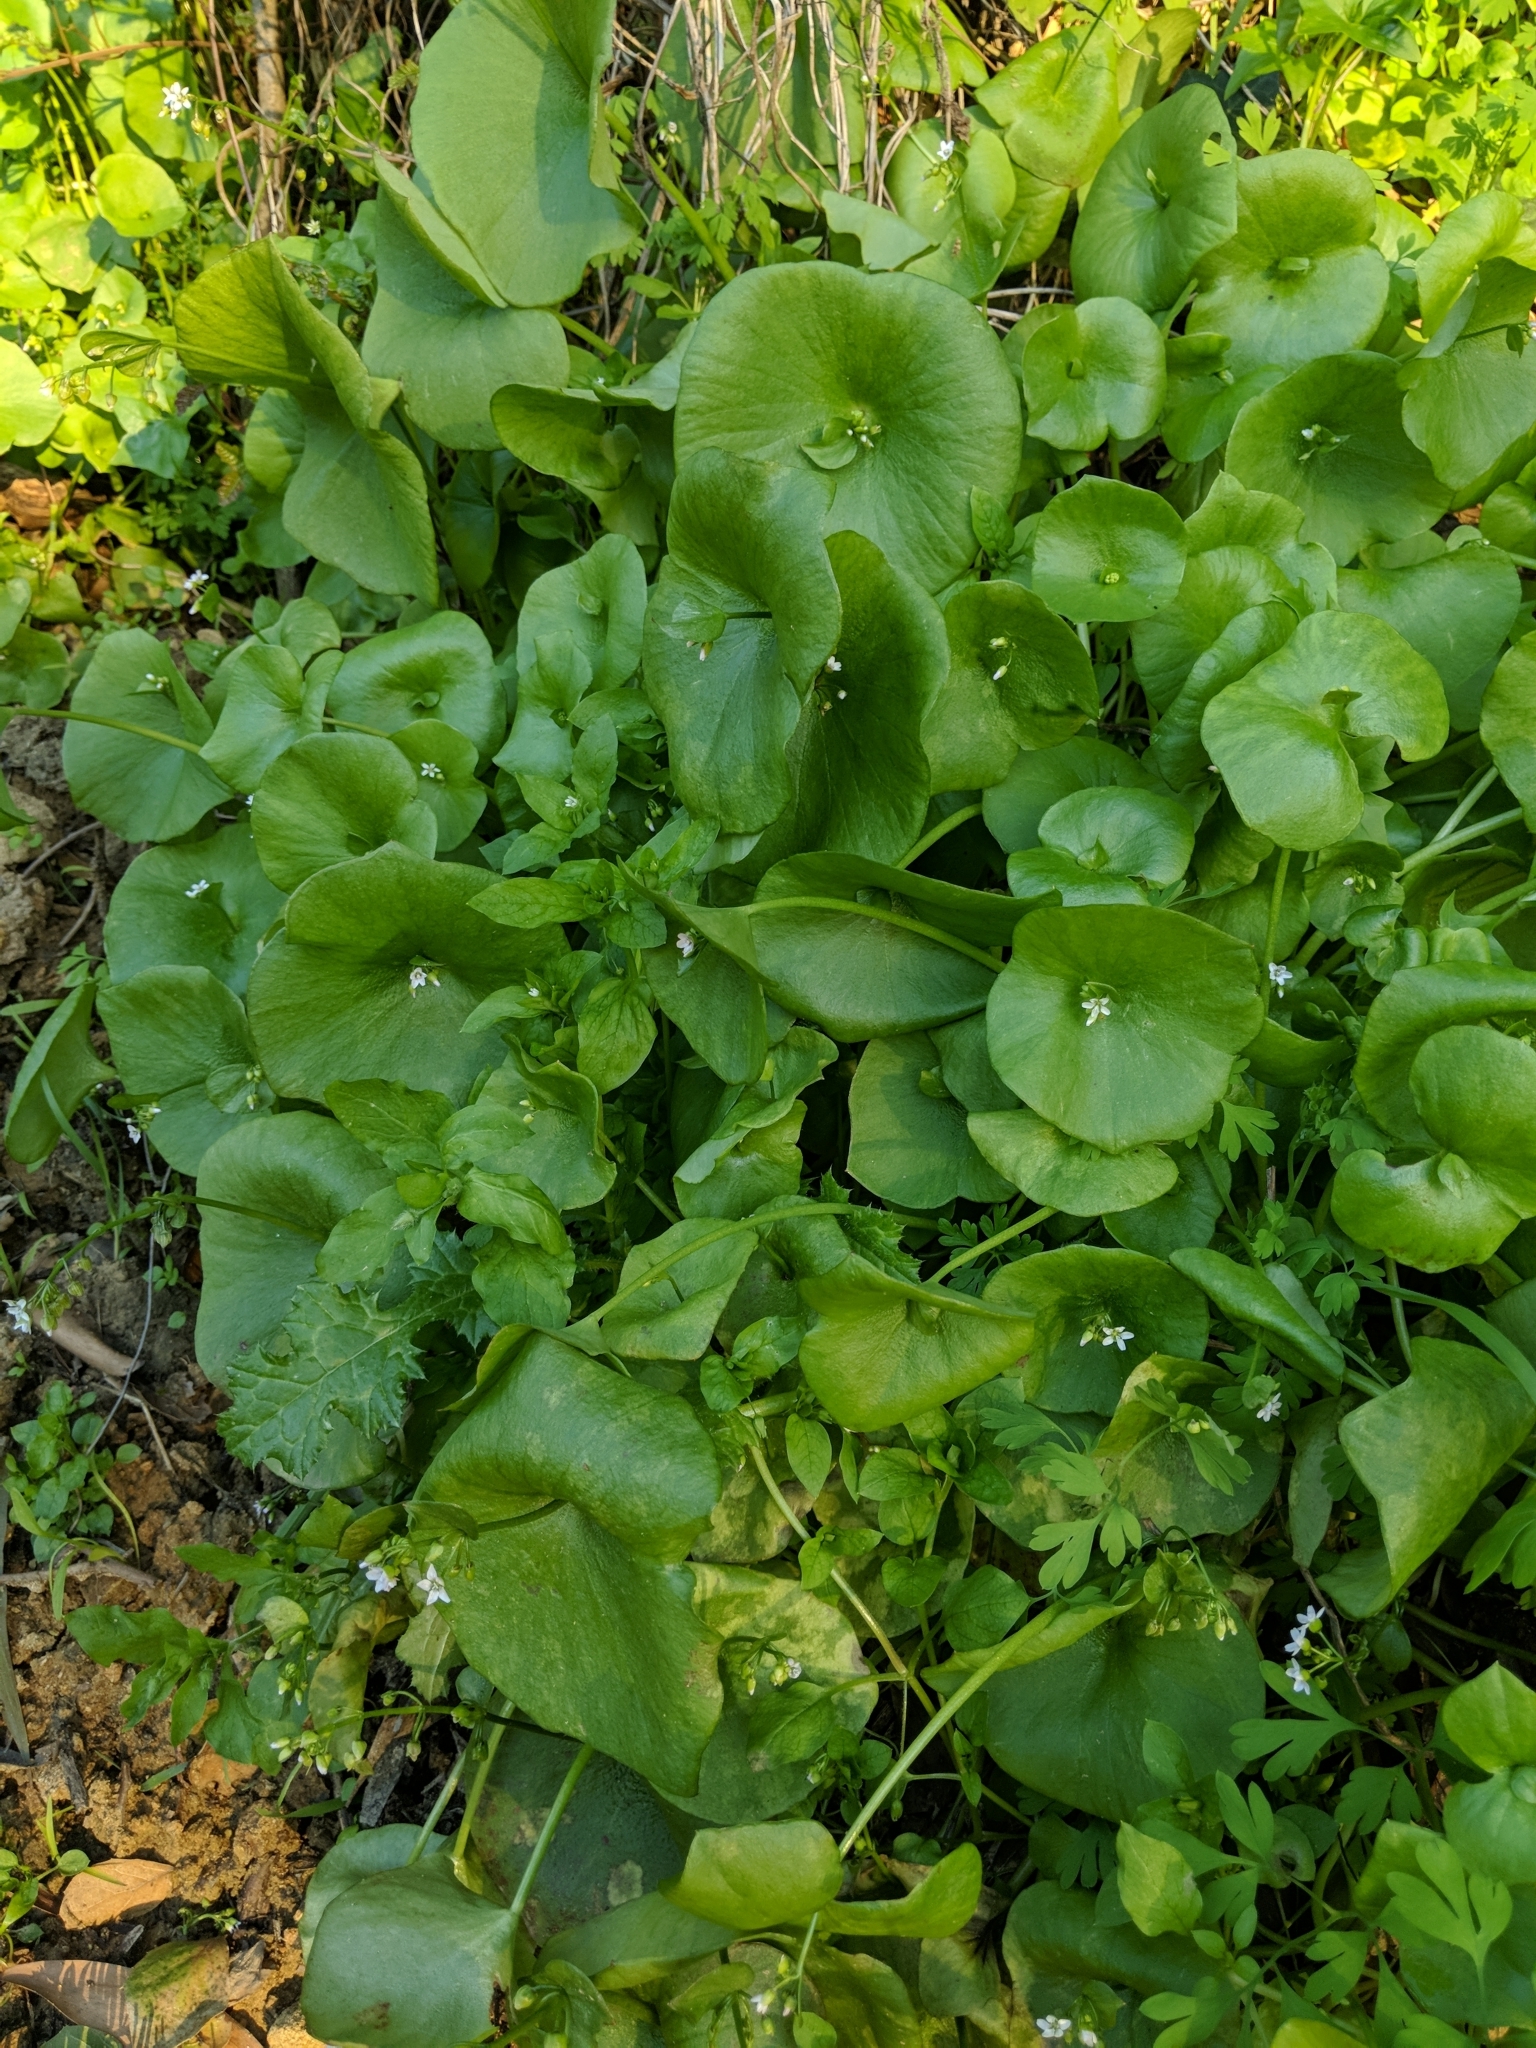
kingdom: Plantae
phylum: Tracheophyta
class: Magnoliopsida
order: Caryophyllales
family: Montiaceae
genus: Claytonia
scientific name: Claytonia perfoliata
